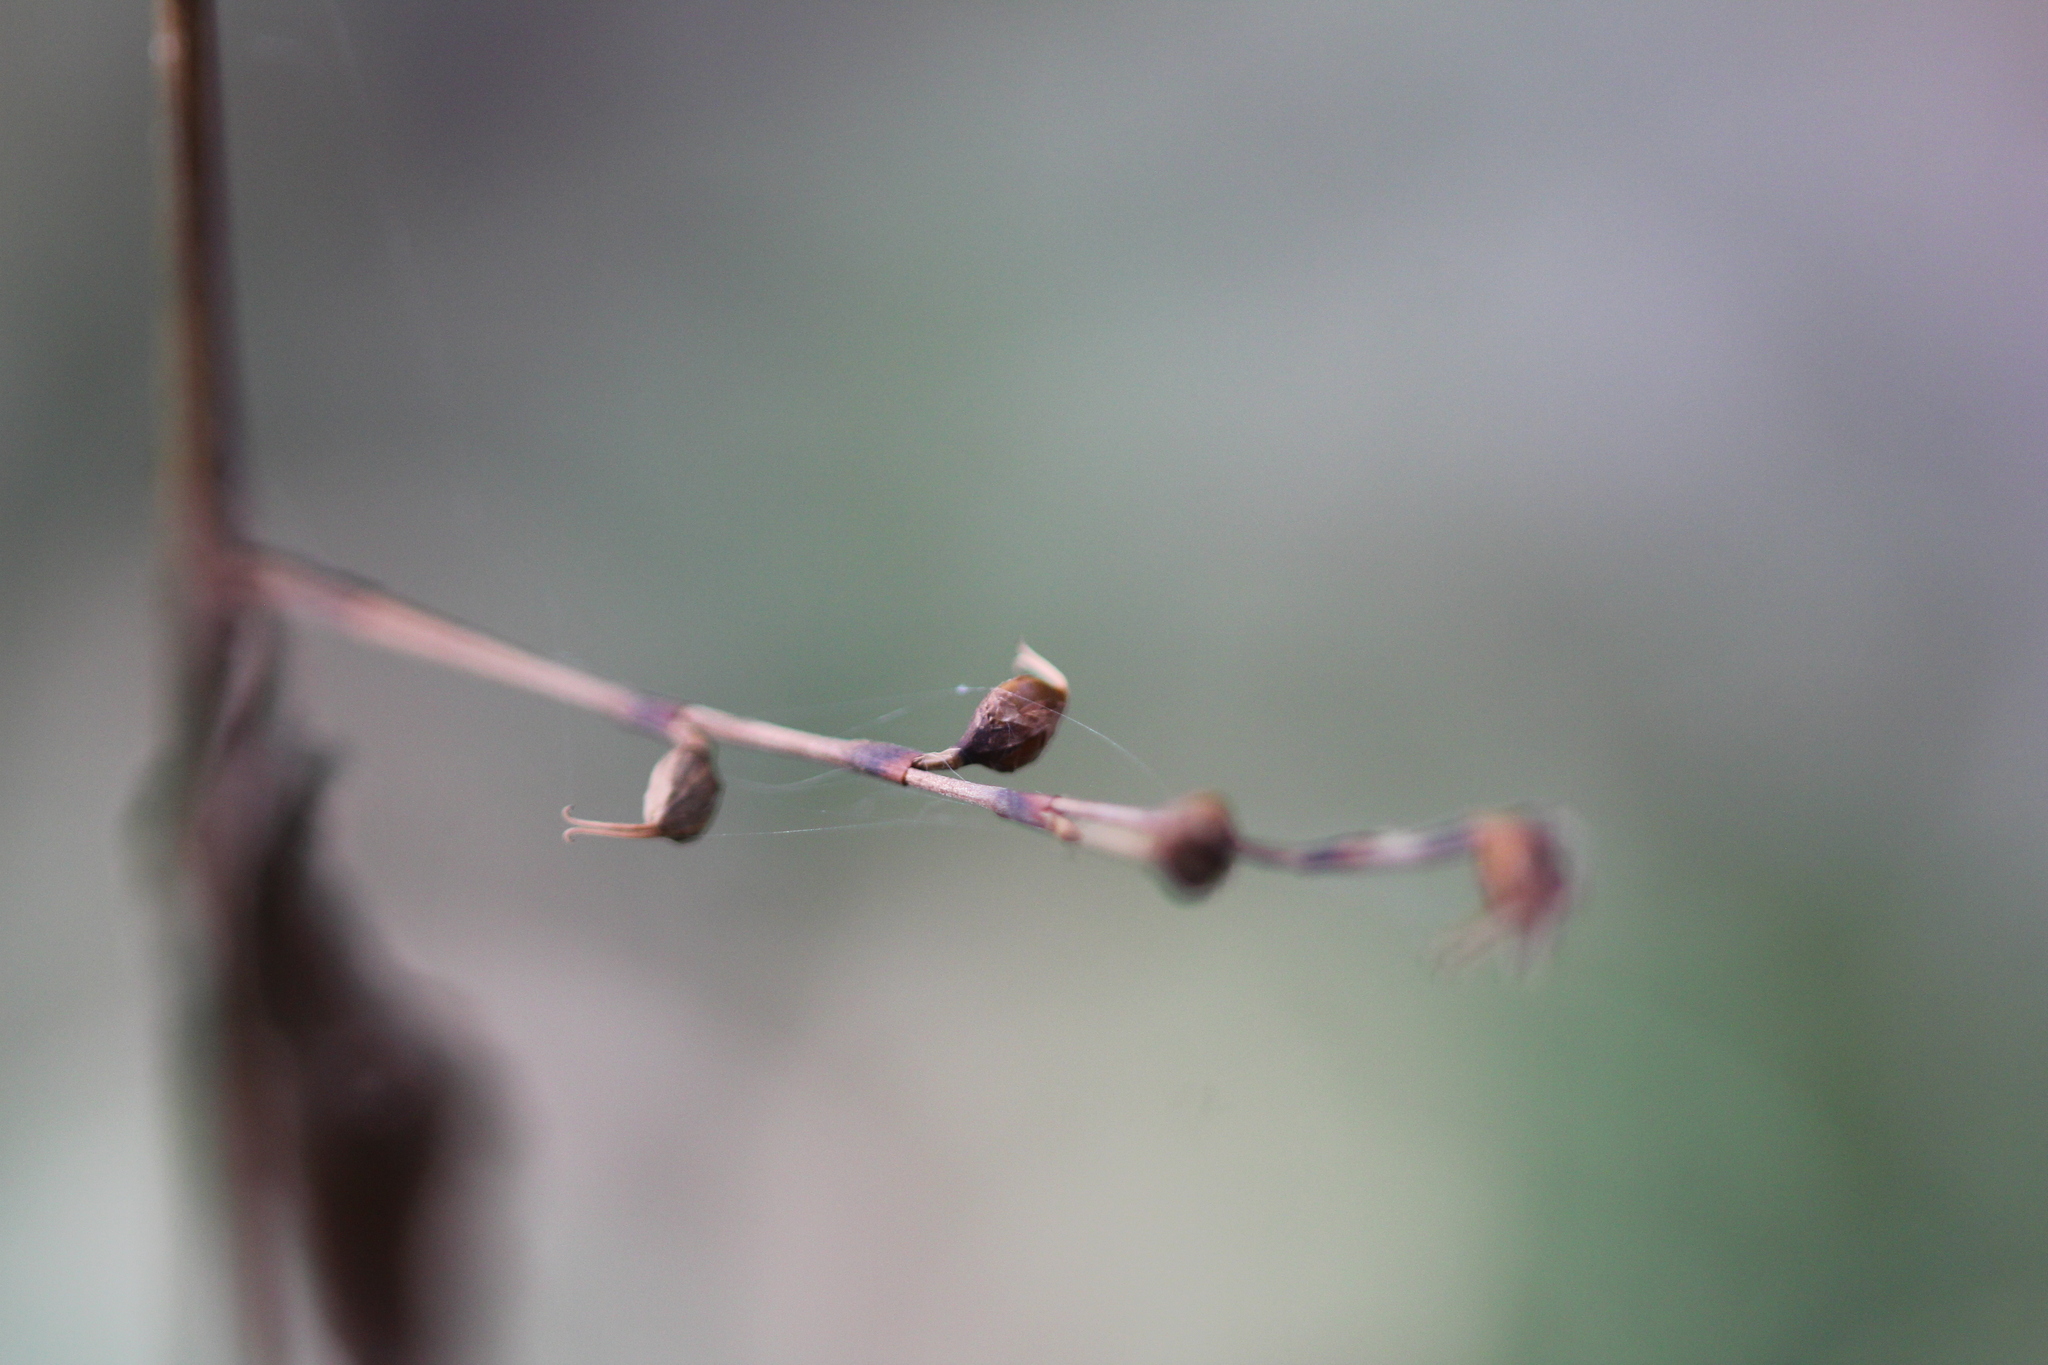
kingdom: Plantae
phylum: Tracheophyta
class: Magnoliopsida
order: Caryophyllales
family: Polygonaceae
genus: Persicaria
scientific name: Persicaria virginiana
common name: Jumpseed
